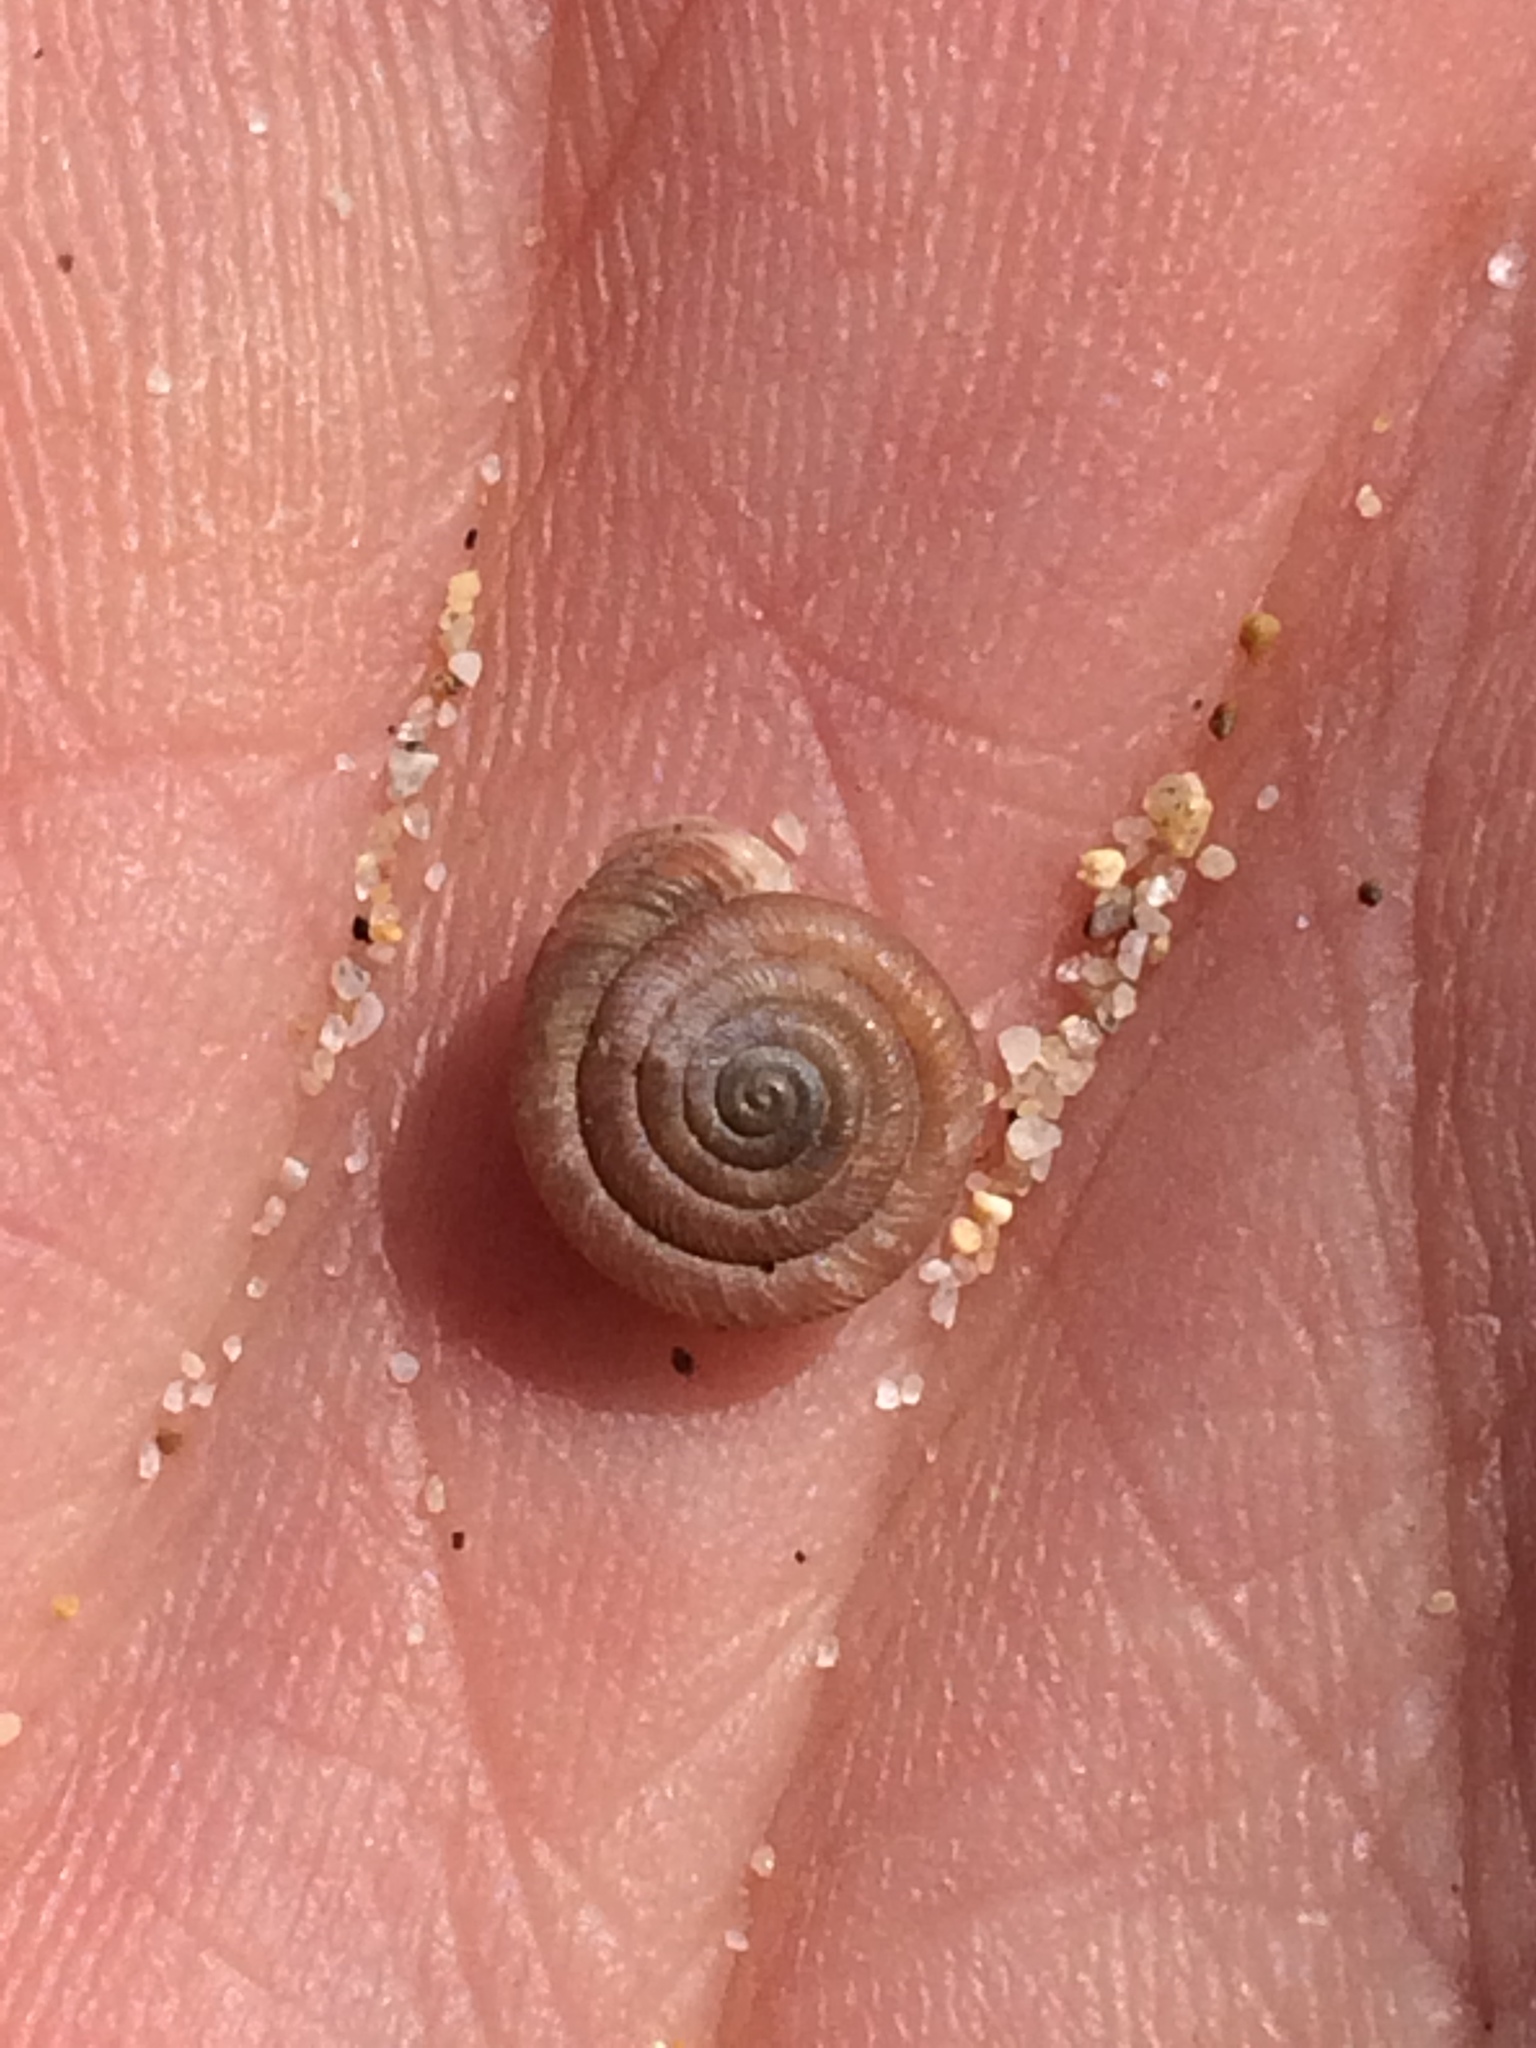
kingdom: Animalia
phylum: Mollusca
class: Gastropoda
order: Stylommatophora
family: Polygyridae
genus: Polygyra
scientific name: Polygyra cereolus
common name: Southern flatcone snail
